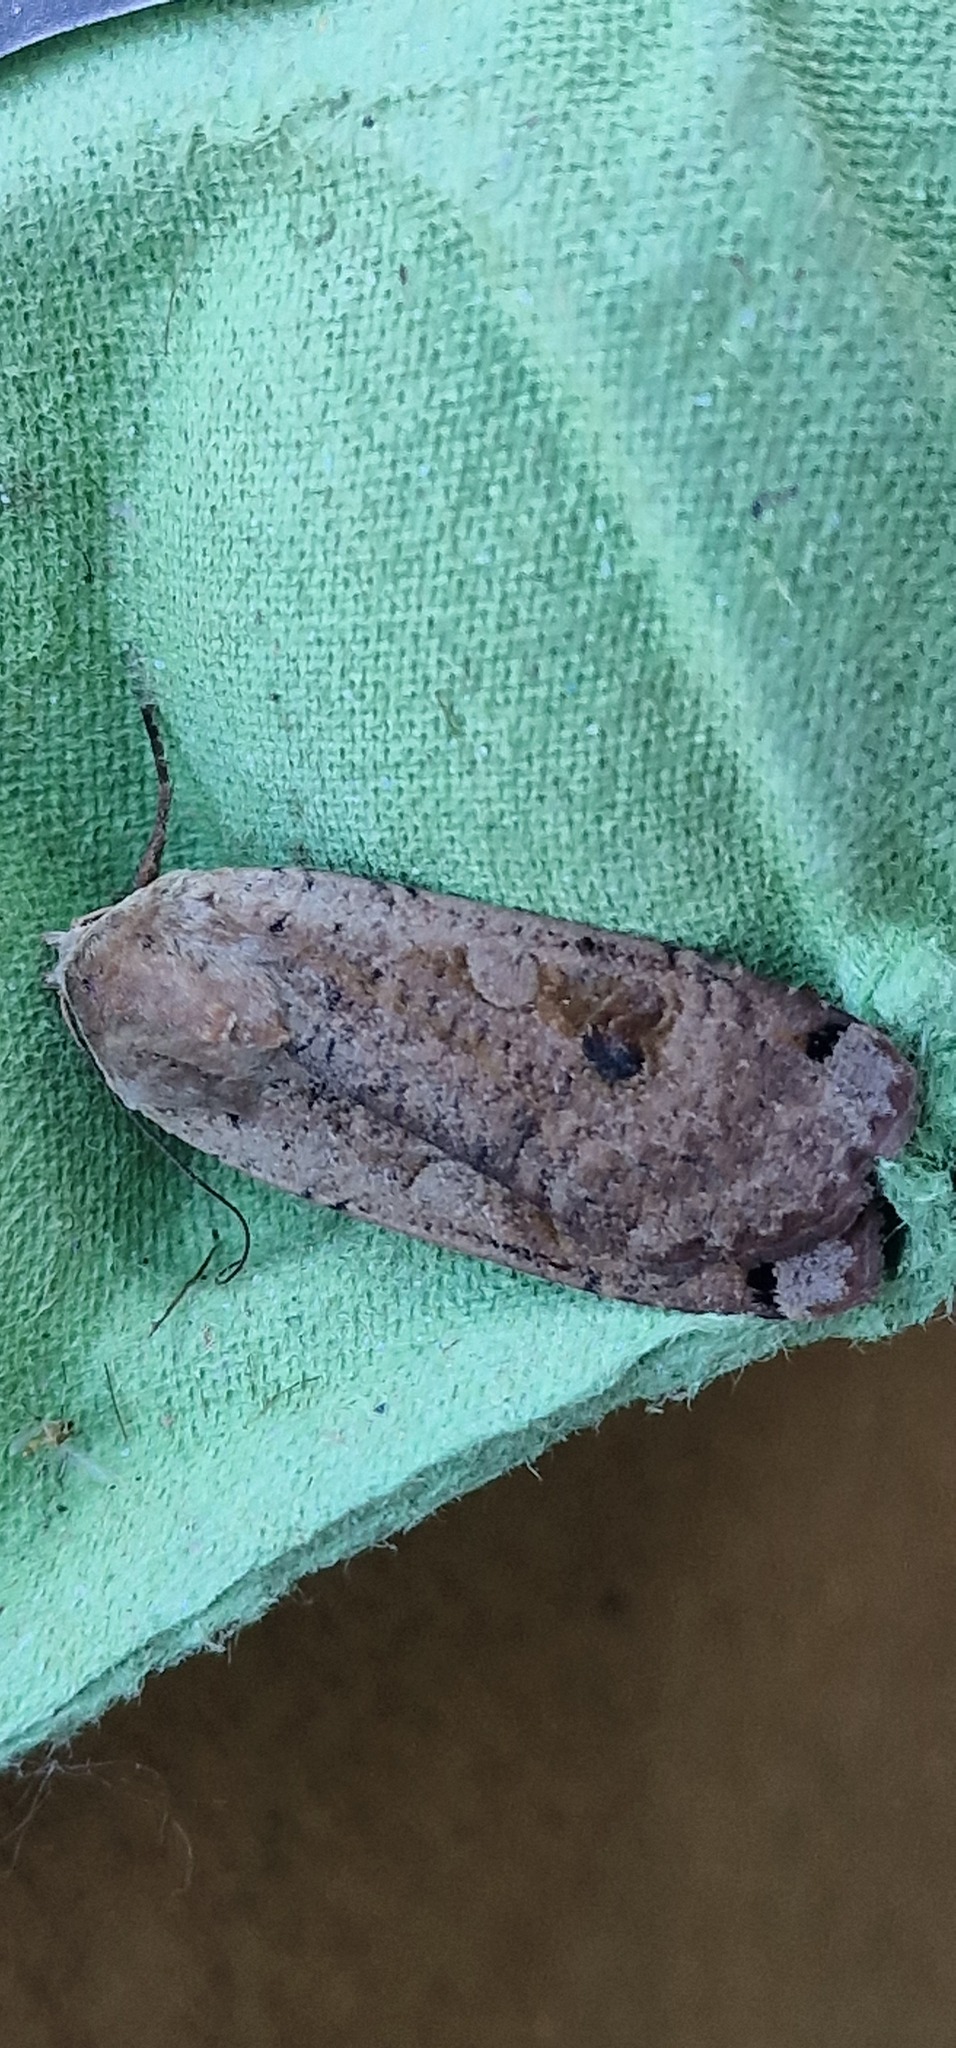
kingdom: Animalia
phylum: Arthropoda
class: Insecta
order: Lepidoptera
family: Noctuidae
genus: Noctua
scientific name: Noctua pronuba
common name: Large yellow underwing
